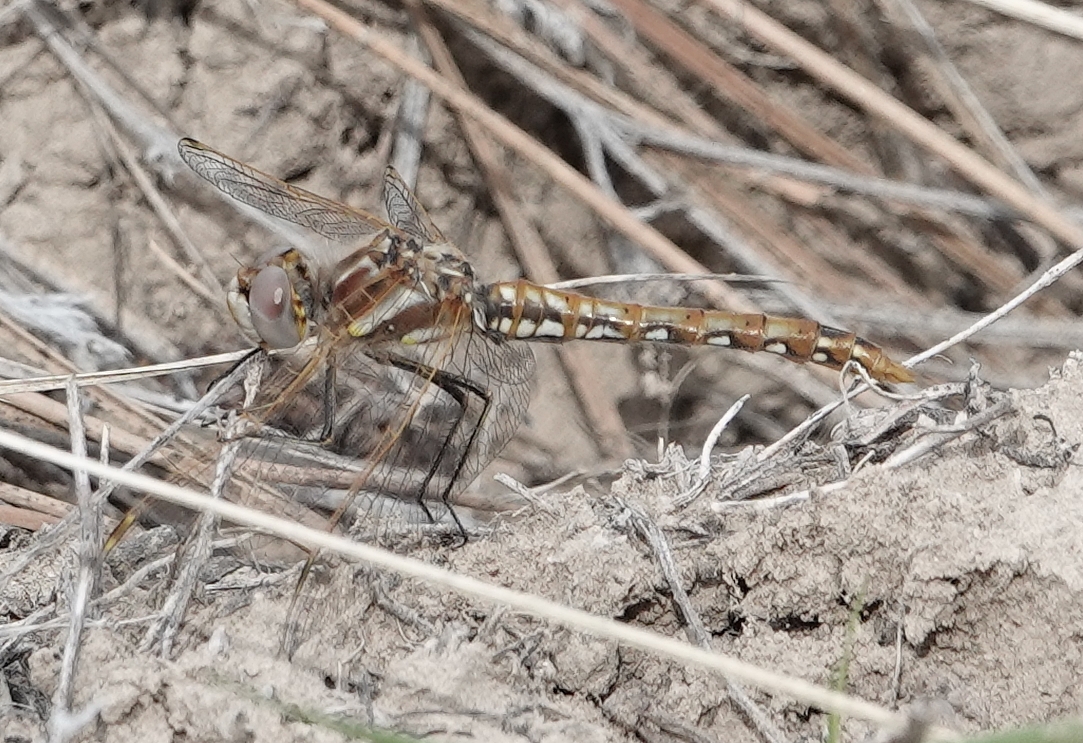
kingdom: Animalia
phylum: Arthropoda
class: Insecta
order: Odonata
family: Libellulidae
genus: Sympetrum
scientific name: Sympetrum corruptum
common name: Variegated meadowhawk
